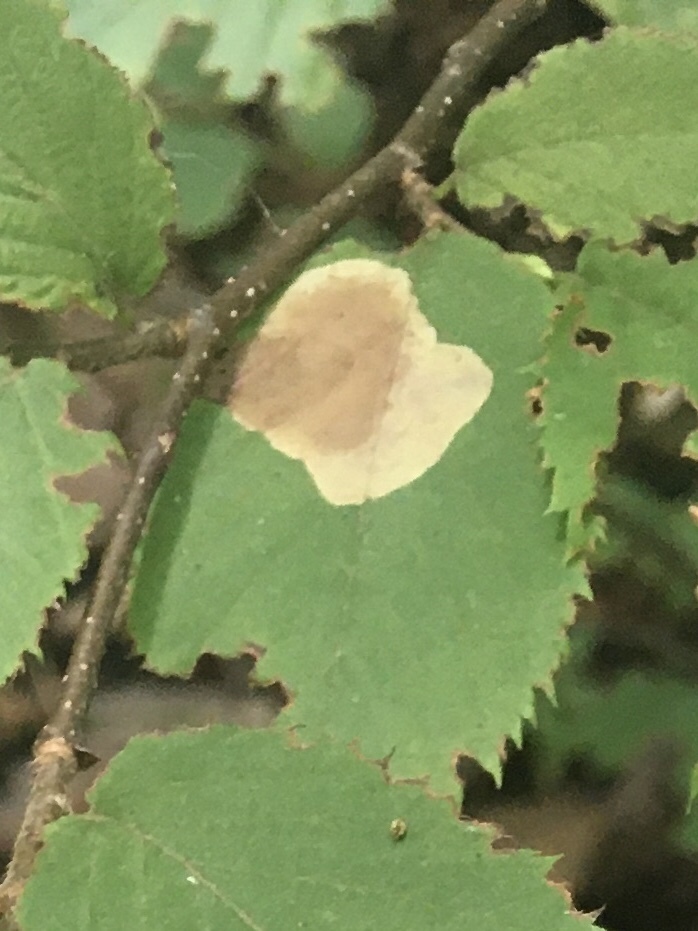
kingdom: Animalia
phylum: Arthropoda
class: Insecta
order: Lepidoptera
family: Gracillariidae
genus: Cameraria
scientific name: Cameraria
